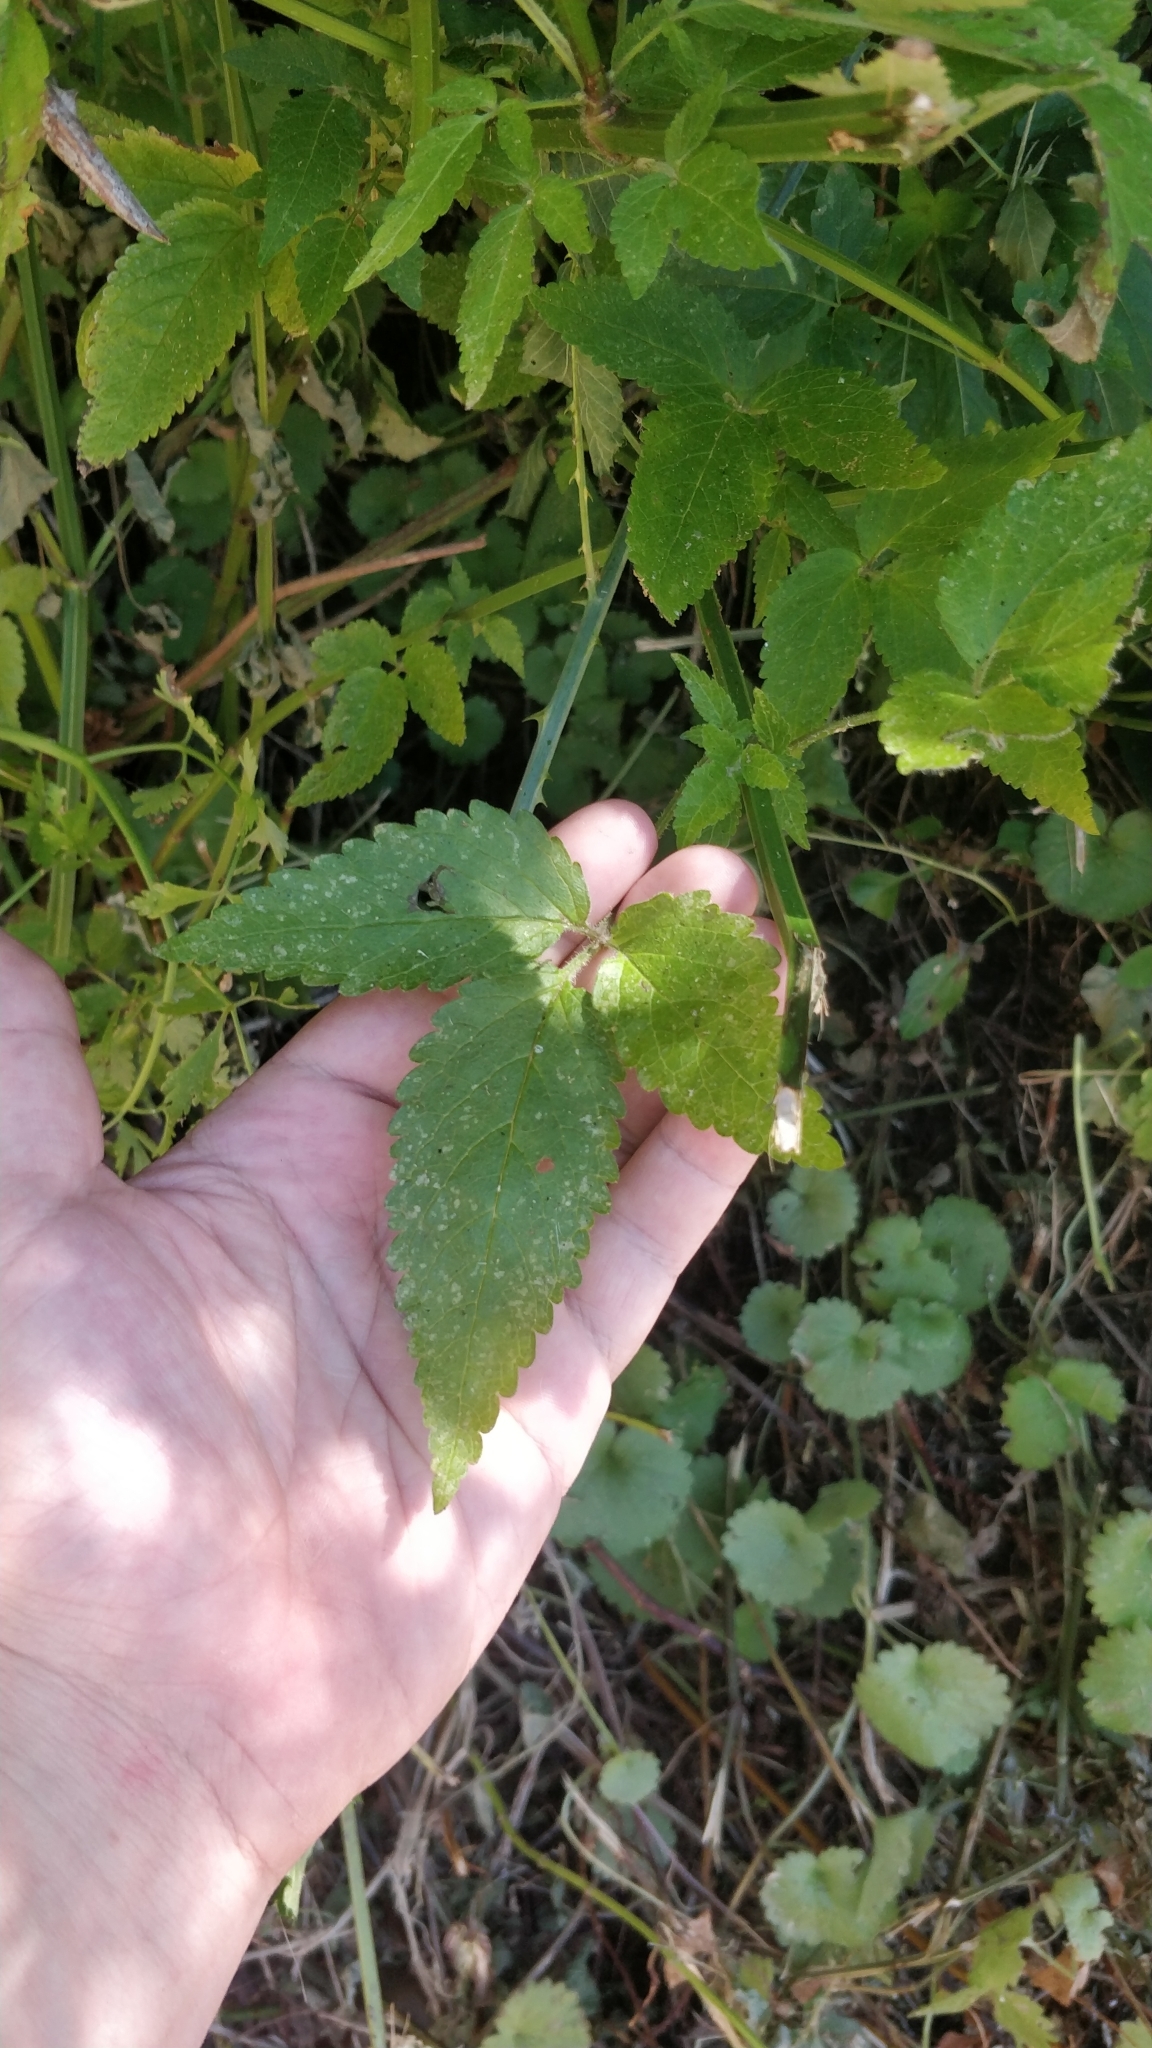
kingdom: Plantae
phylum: Tracheophyta
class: Magnoliopsida
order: Lamiales
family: Lamiaceae
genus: Cedronella
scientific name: Cedronella canariensis
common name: Canary islands balm
